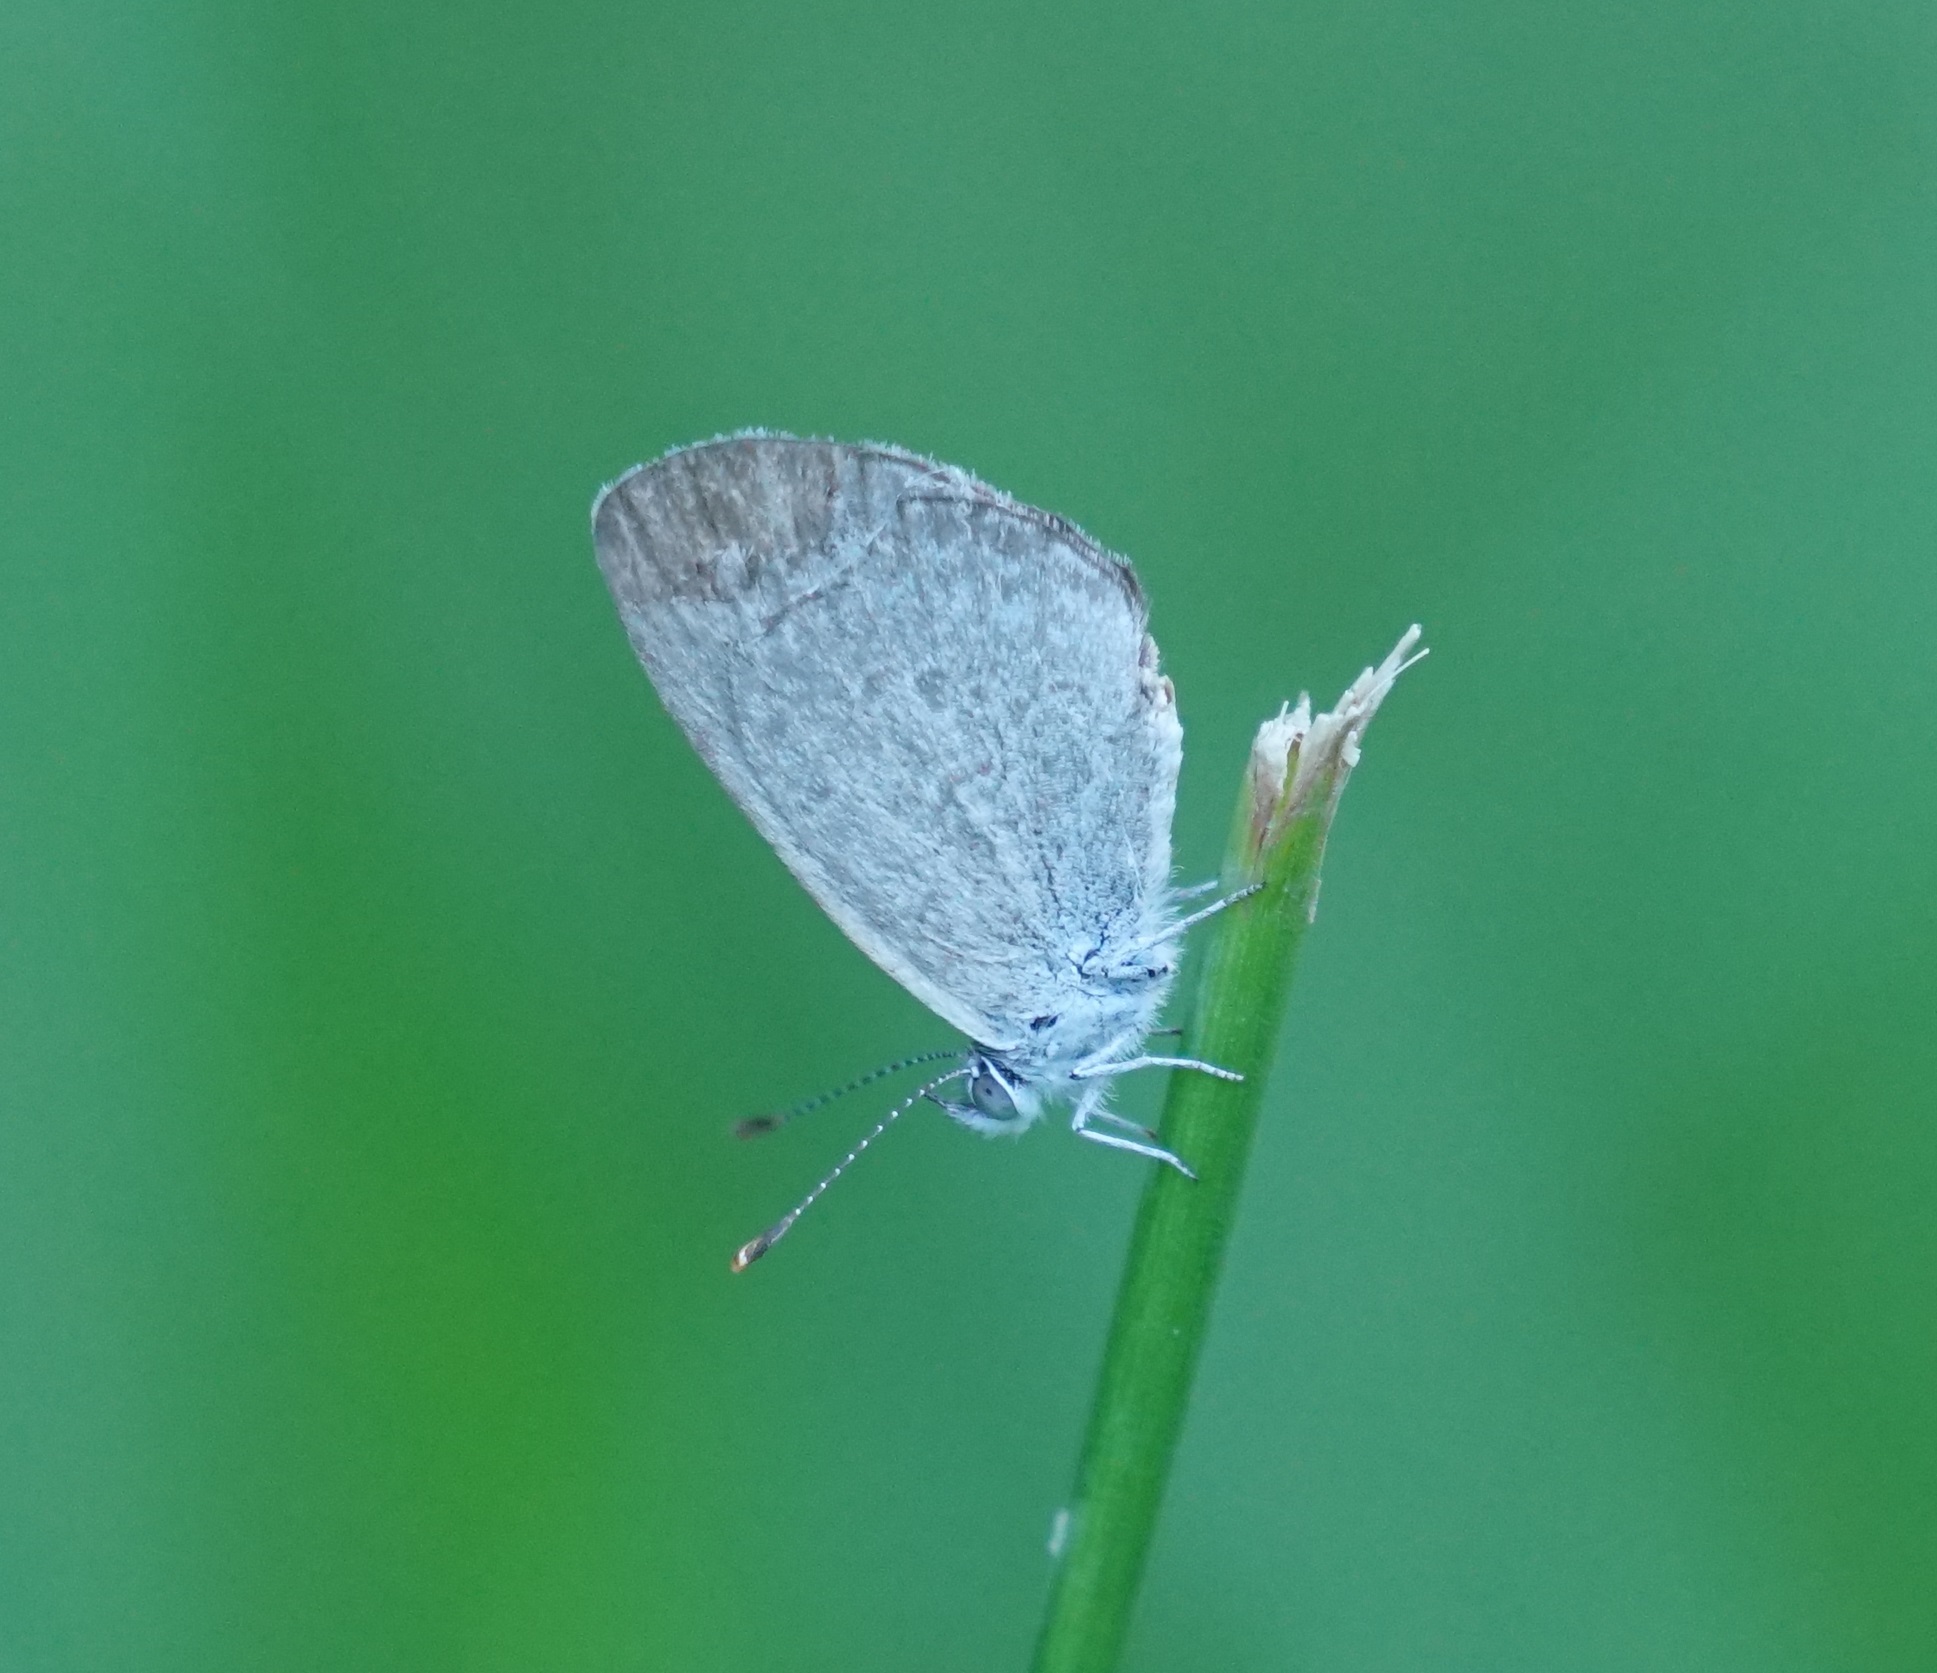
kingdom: Animalia
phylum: Arthropoda
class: Insecta
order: Lepidoptera
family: Lycaenidae
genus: Zizina
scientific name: Zizina labradus
